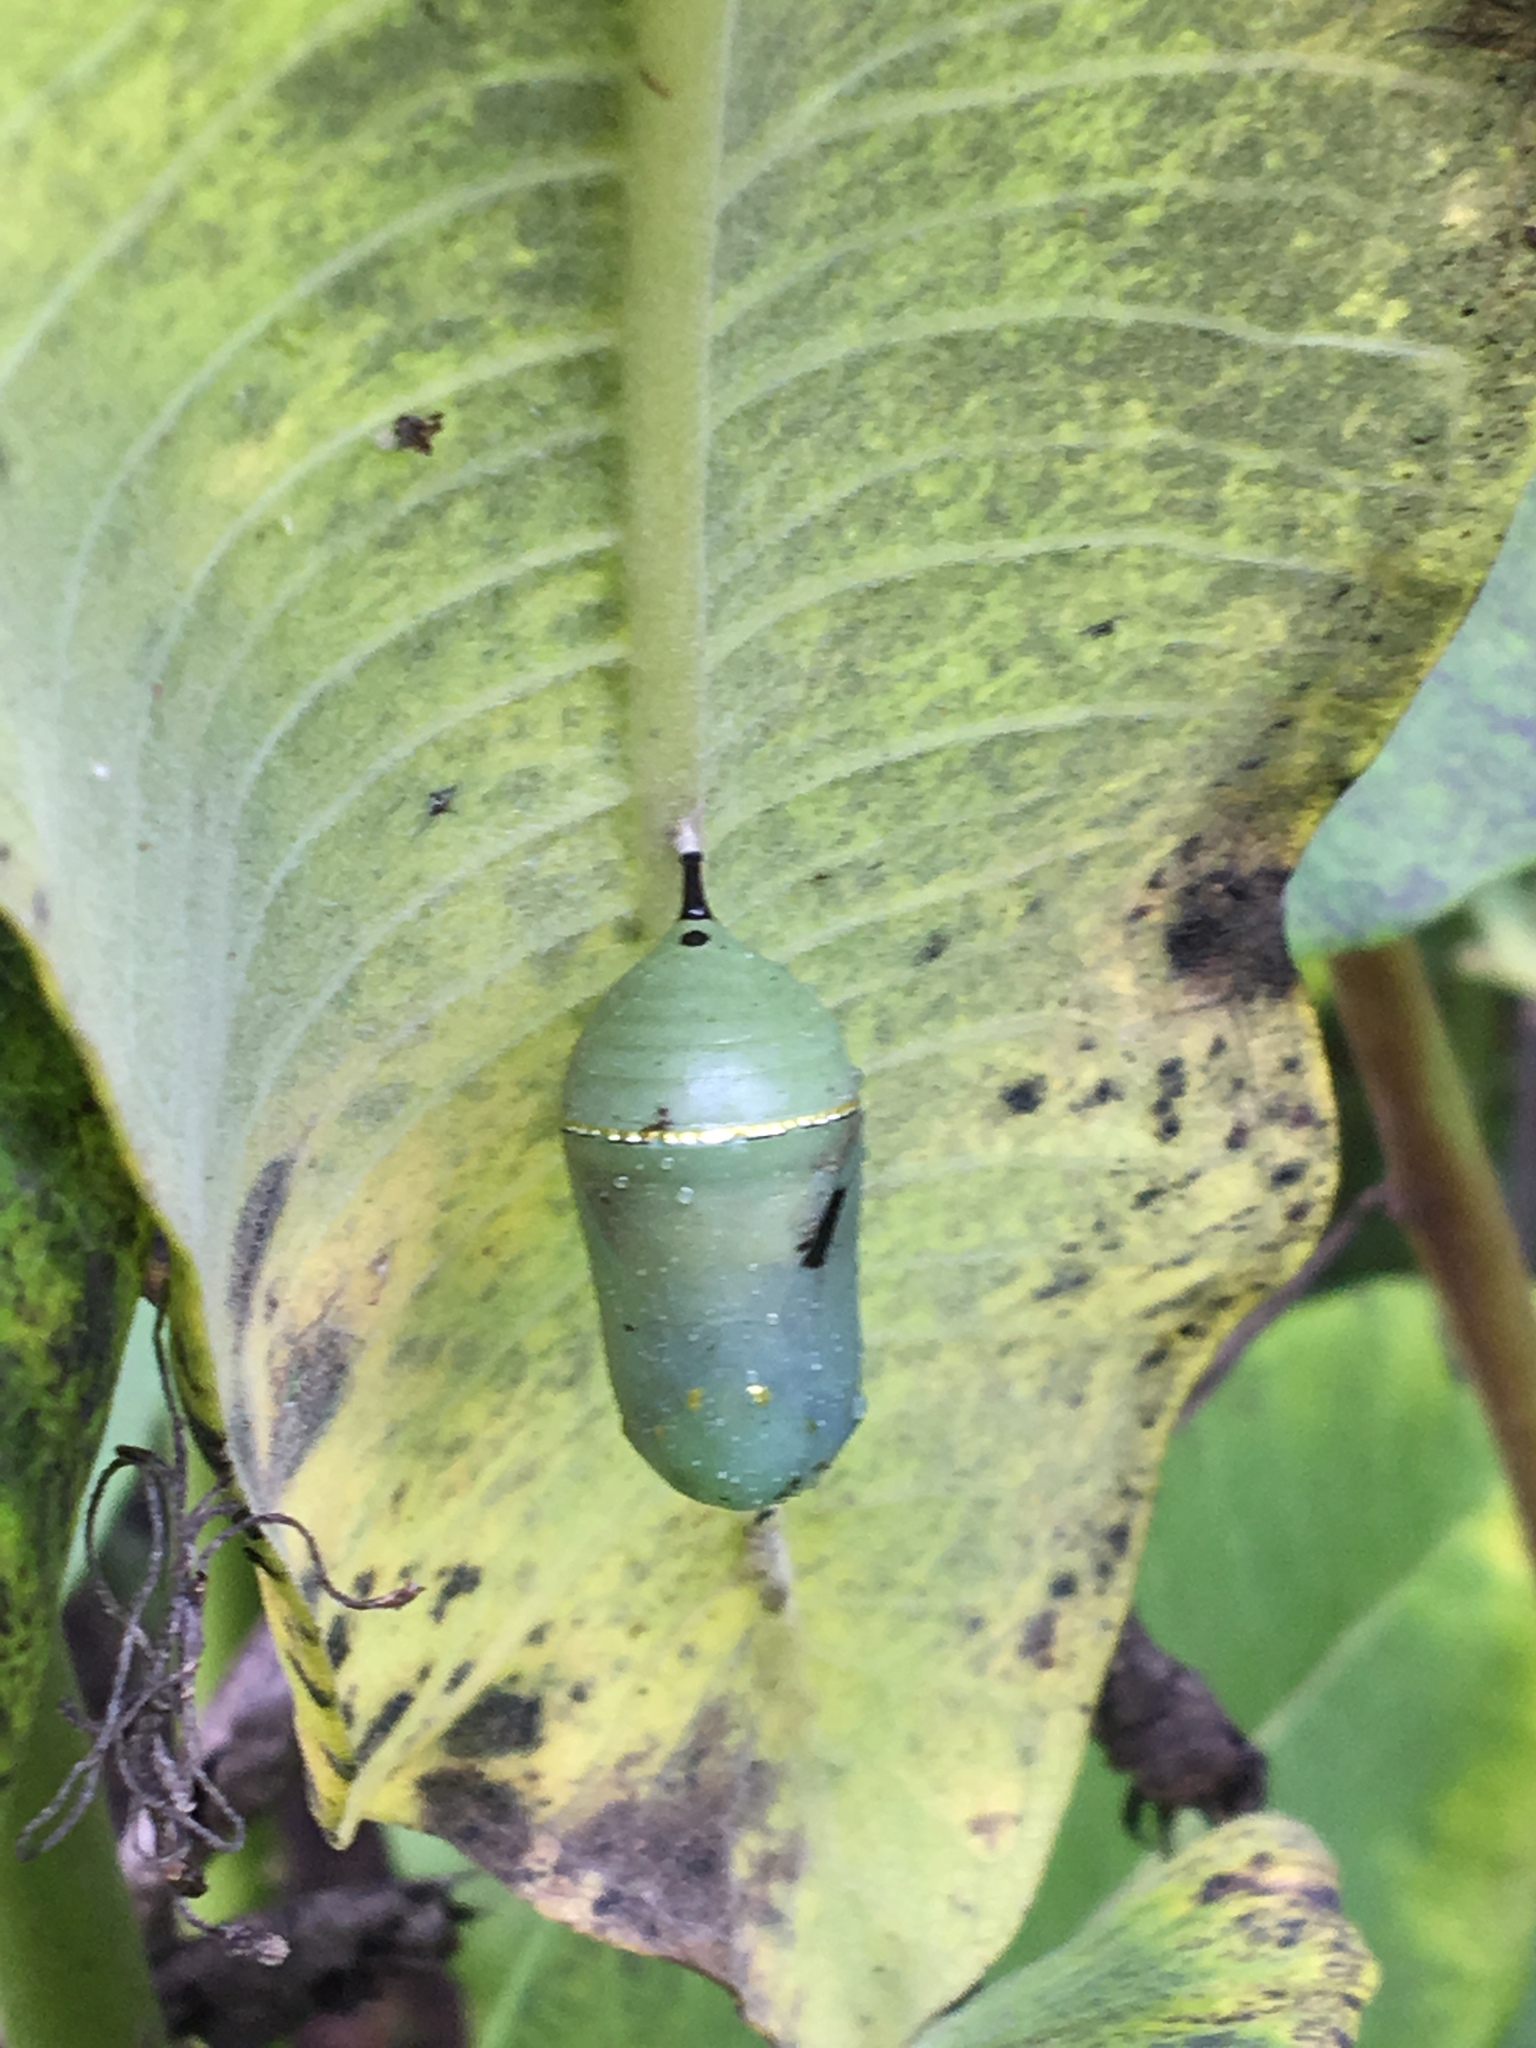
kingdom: Animalia
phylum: Arthropoda
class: Insecta
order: Lepidoptera
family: Nymphalidae
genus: Danaus
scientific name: Danaus plexippus
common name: Monarch
